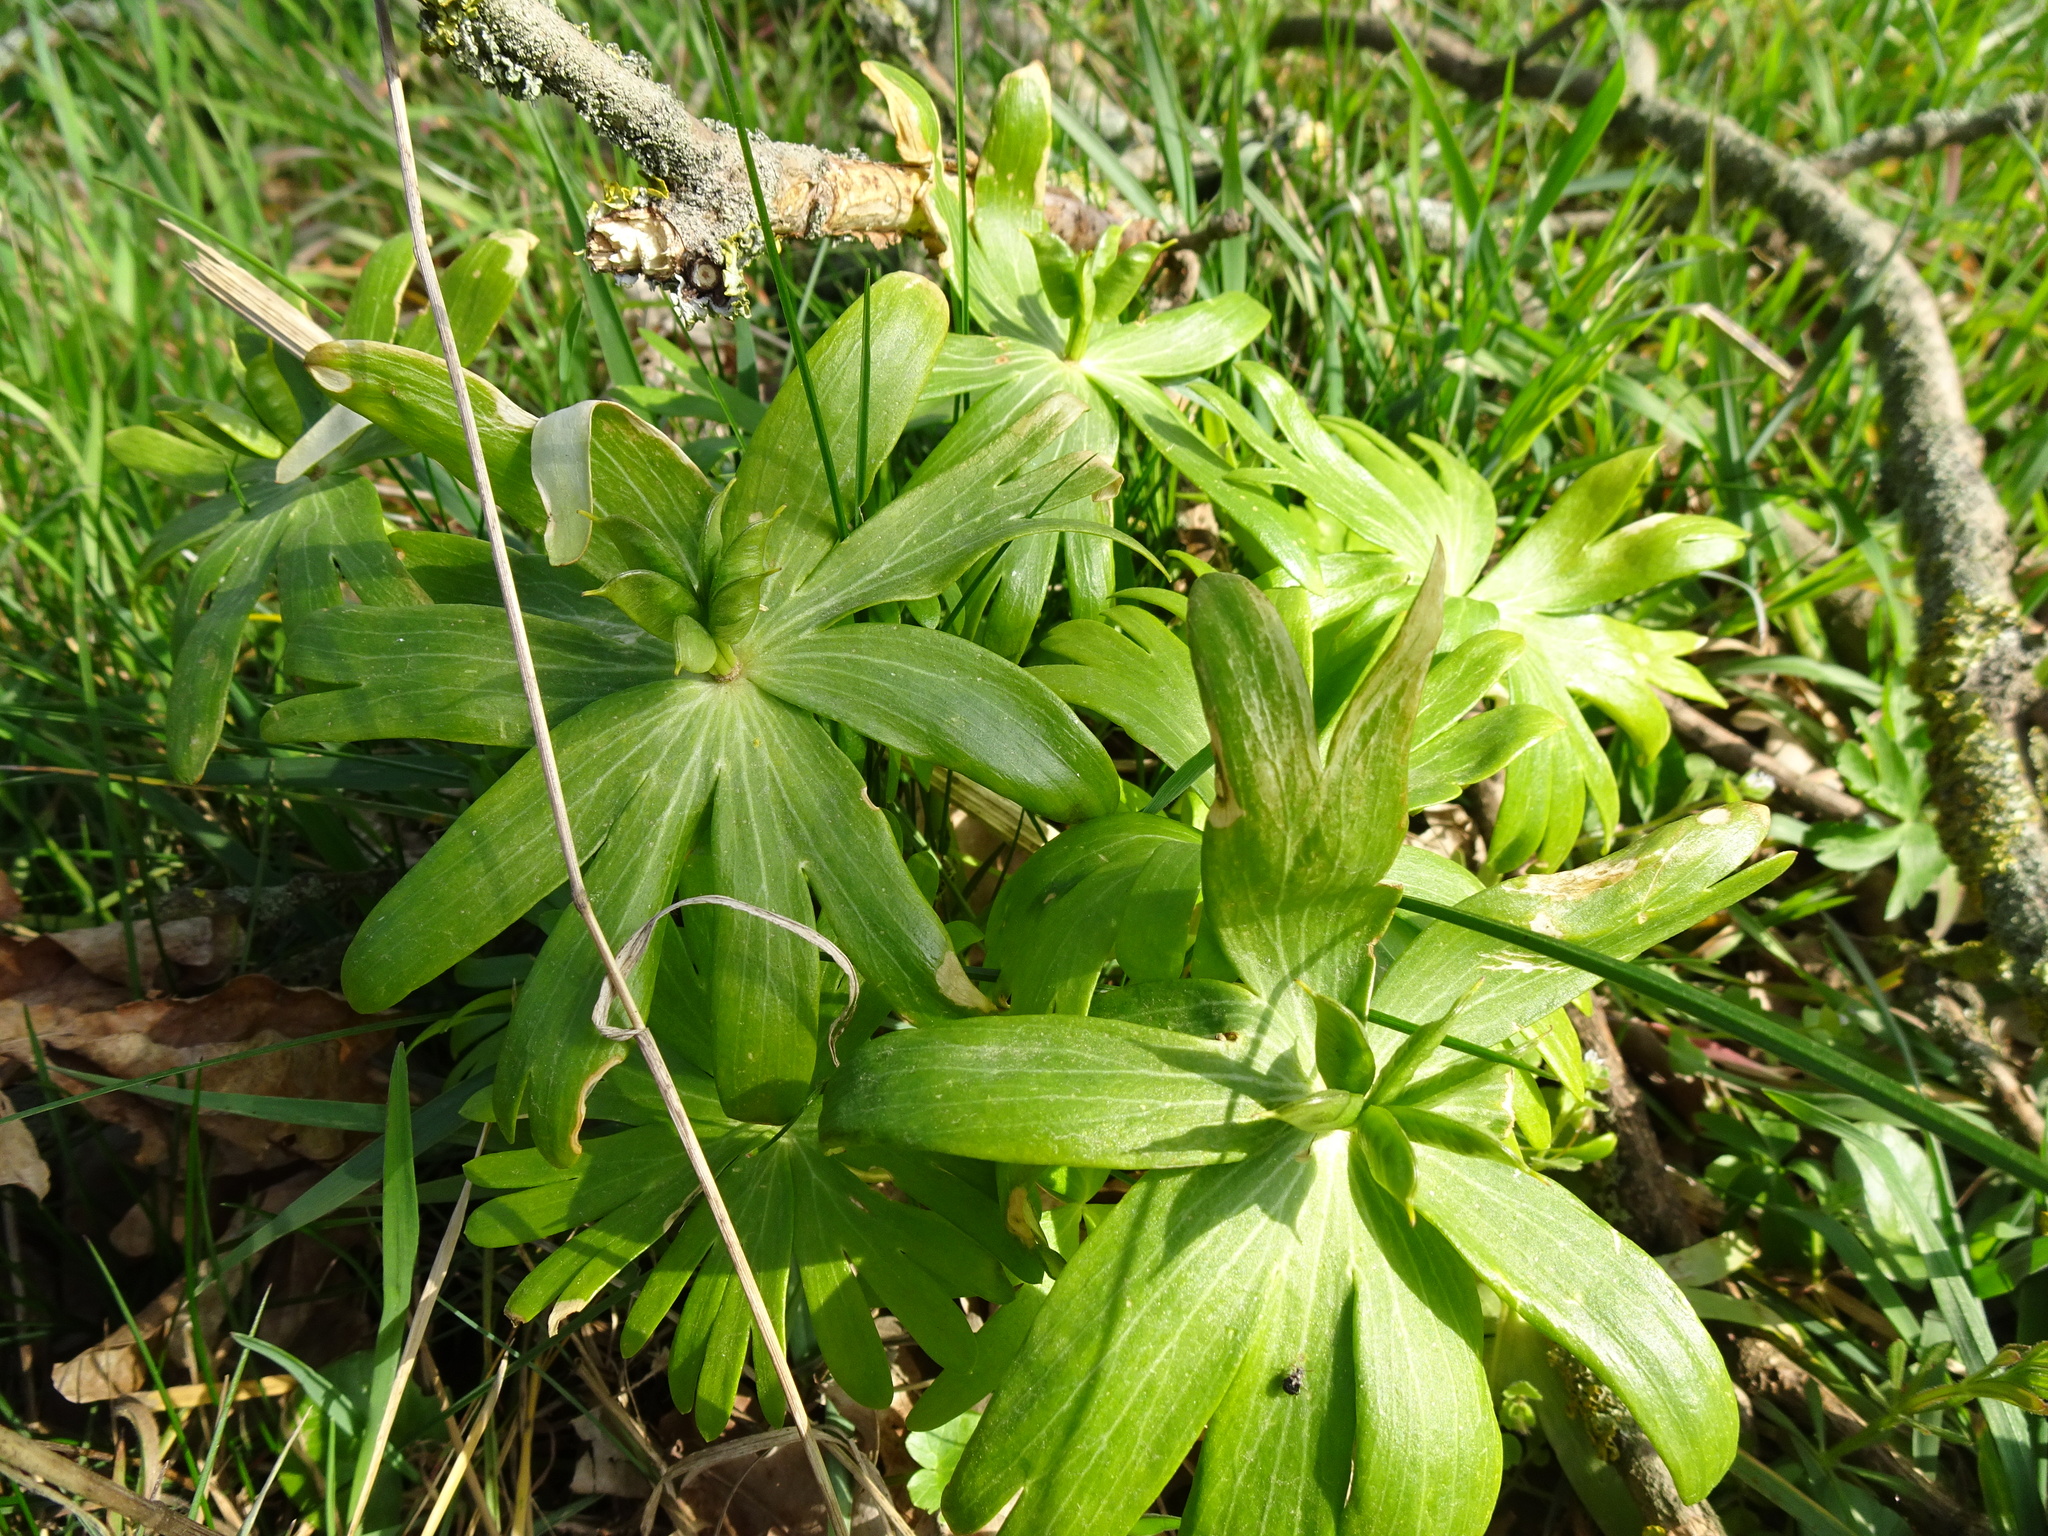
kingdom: Plantae
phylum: Tracheophyta
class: Magnoliopsida
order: Ranunculales
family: Ranunculaceae
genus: Eranthis
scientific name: Eranthis hyemalis
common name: Winter aconite
